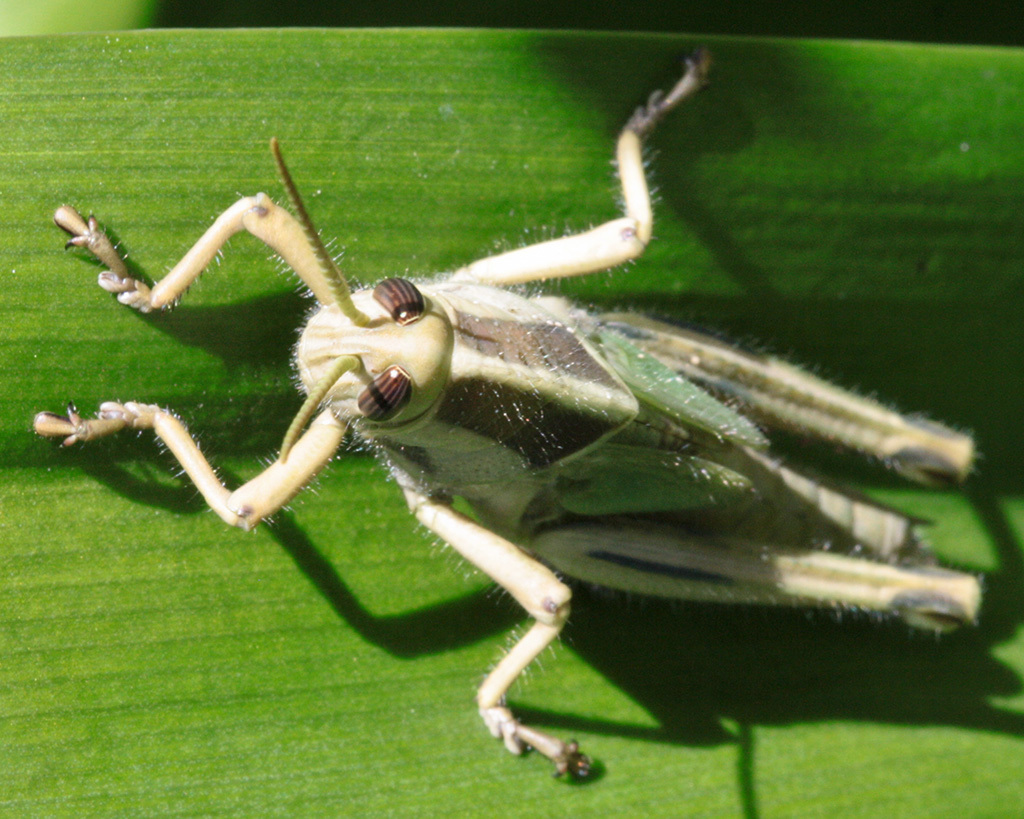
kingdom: Animalia
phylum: Arthropoda
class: Insecta
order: Orthoptera
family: Acrididae
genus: Acanthacris
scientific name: Acanthacris ruficornis
